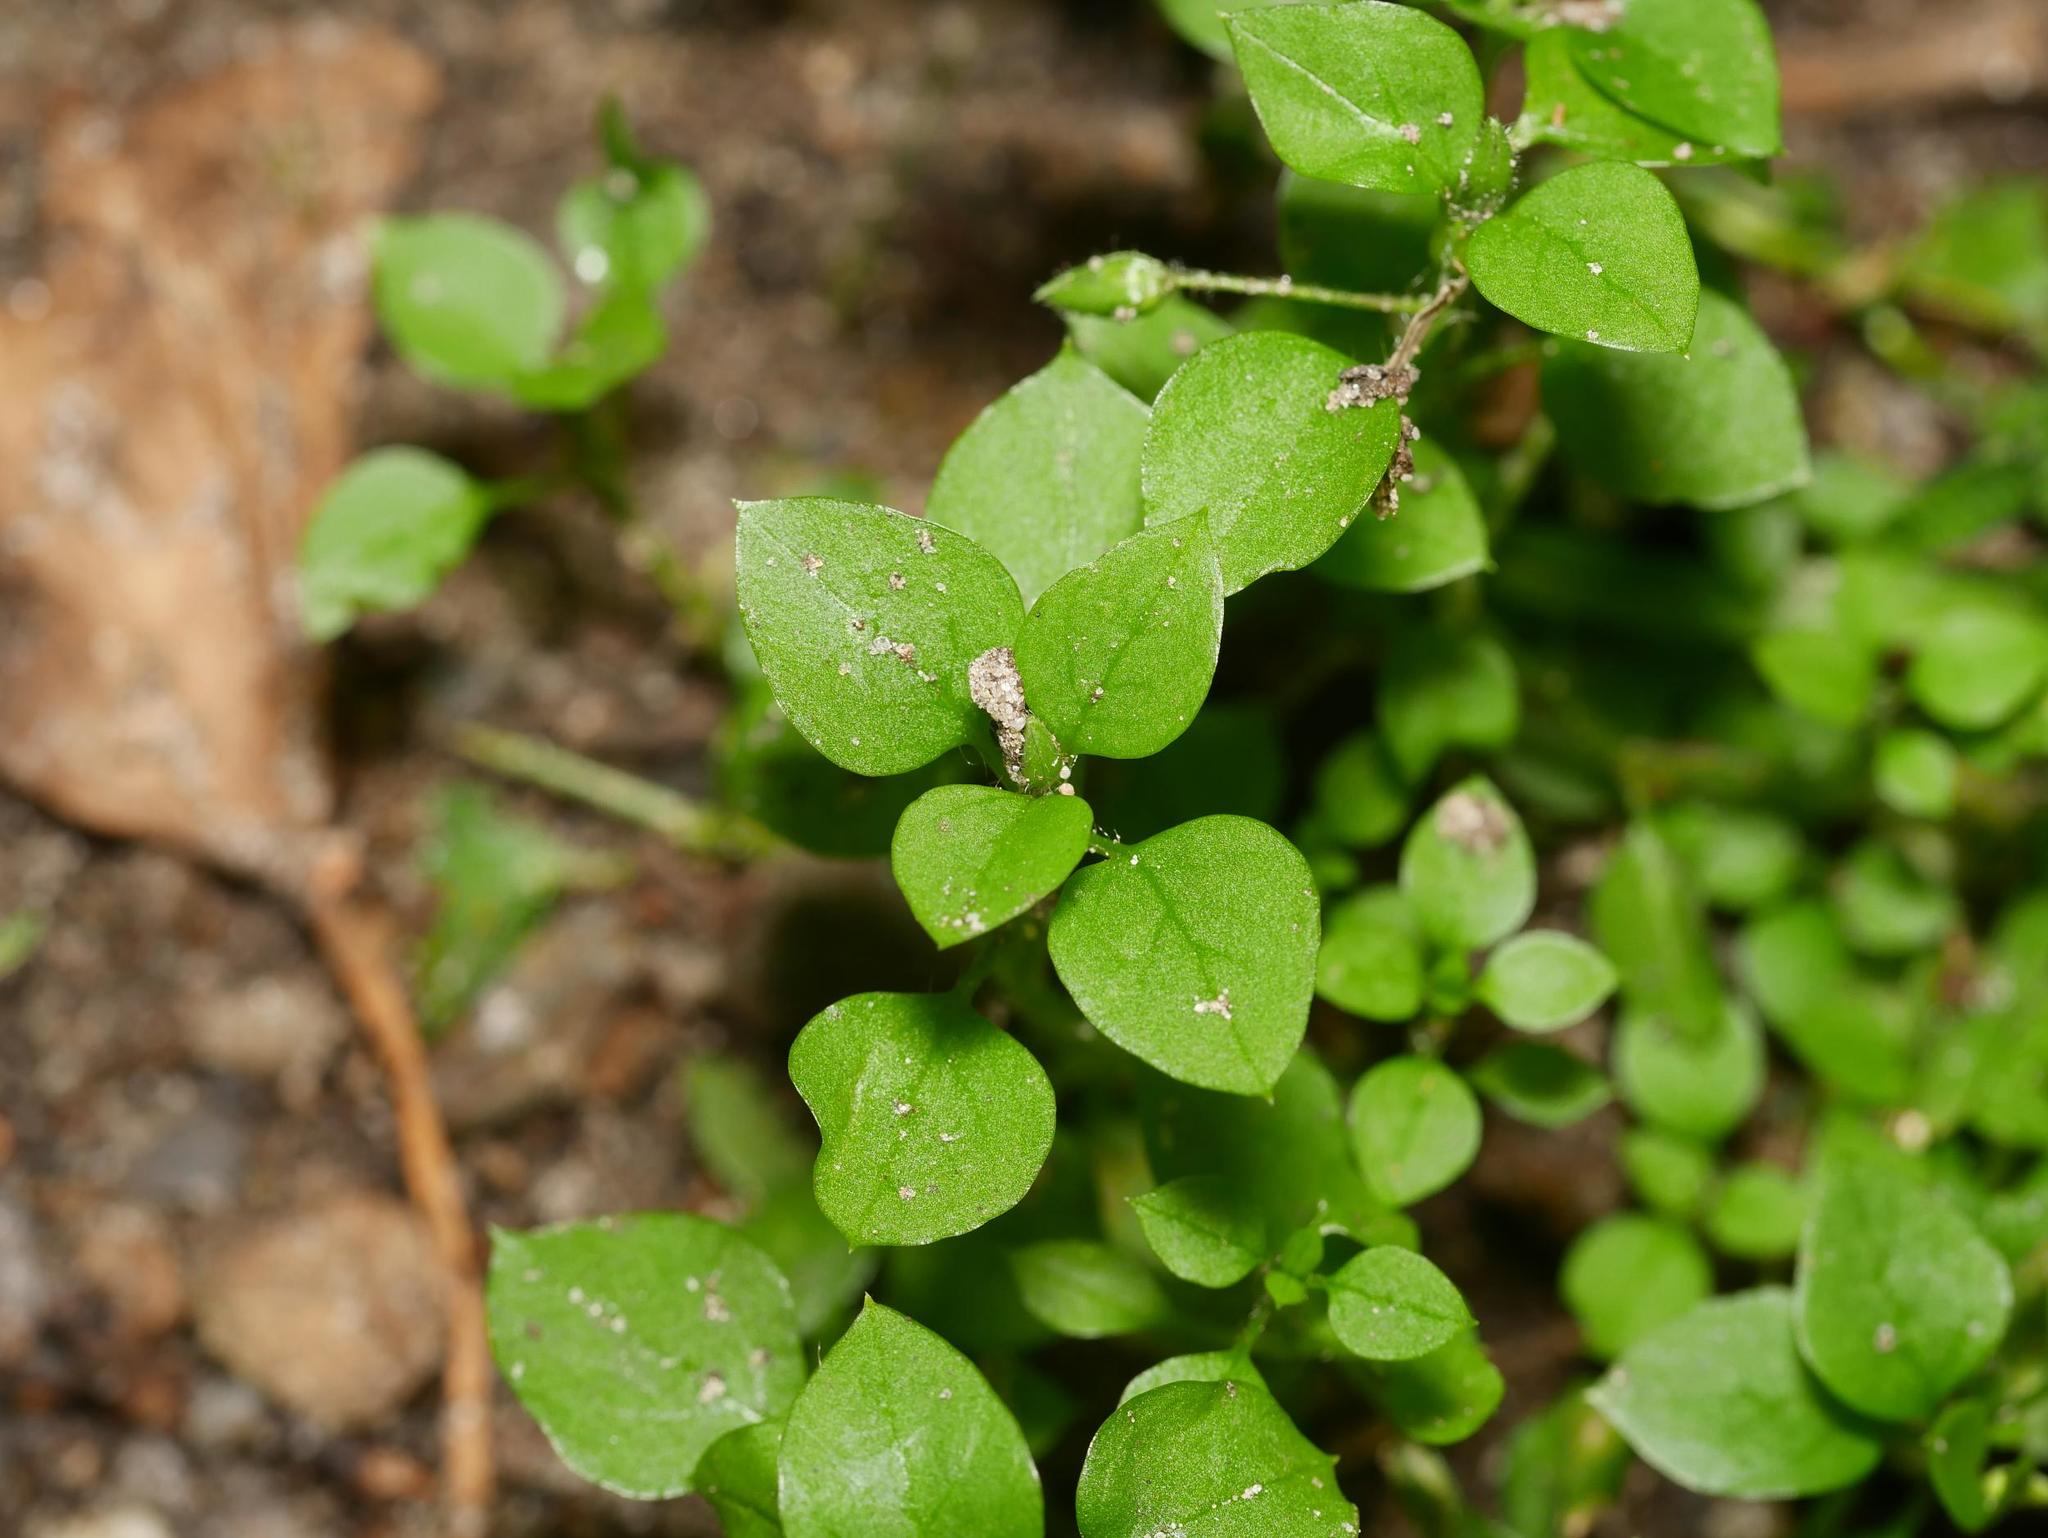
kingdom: Plantae
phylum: Tracheophyta
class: Magnoliopsida
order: Caryophyllales
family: Caryophyllaceae
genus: Stellaria
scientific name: Stellaria media
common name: Common chickweed
